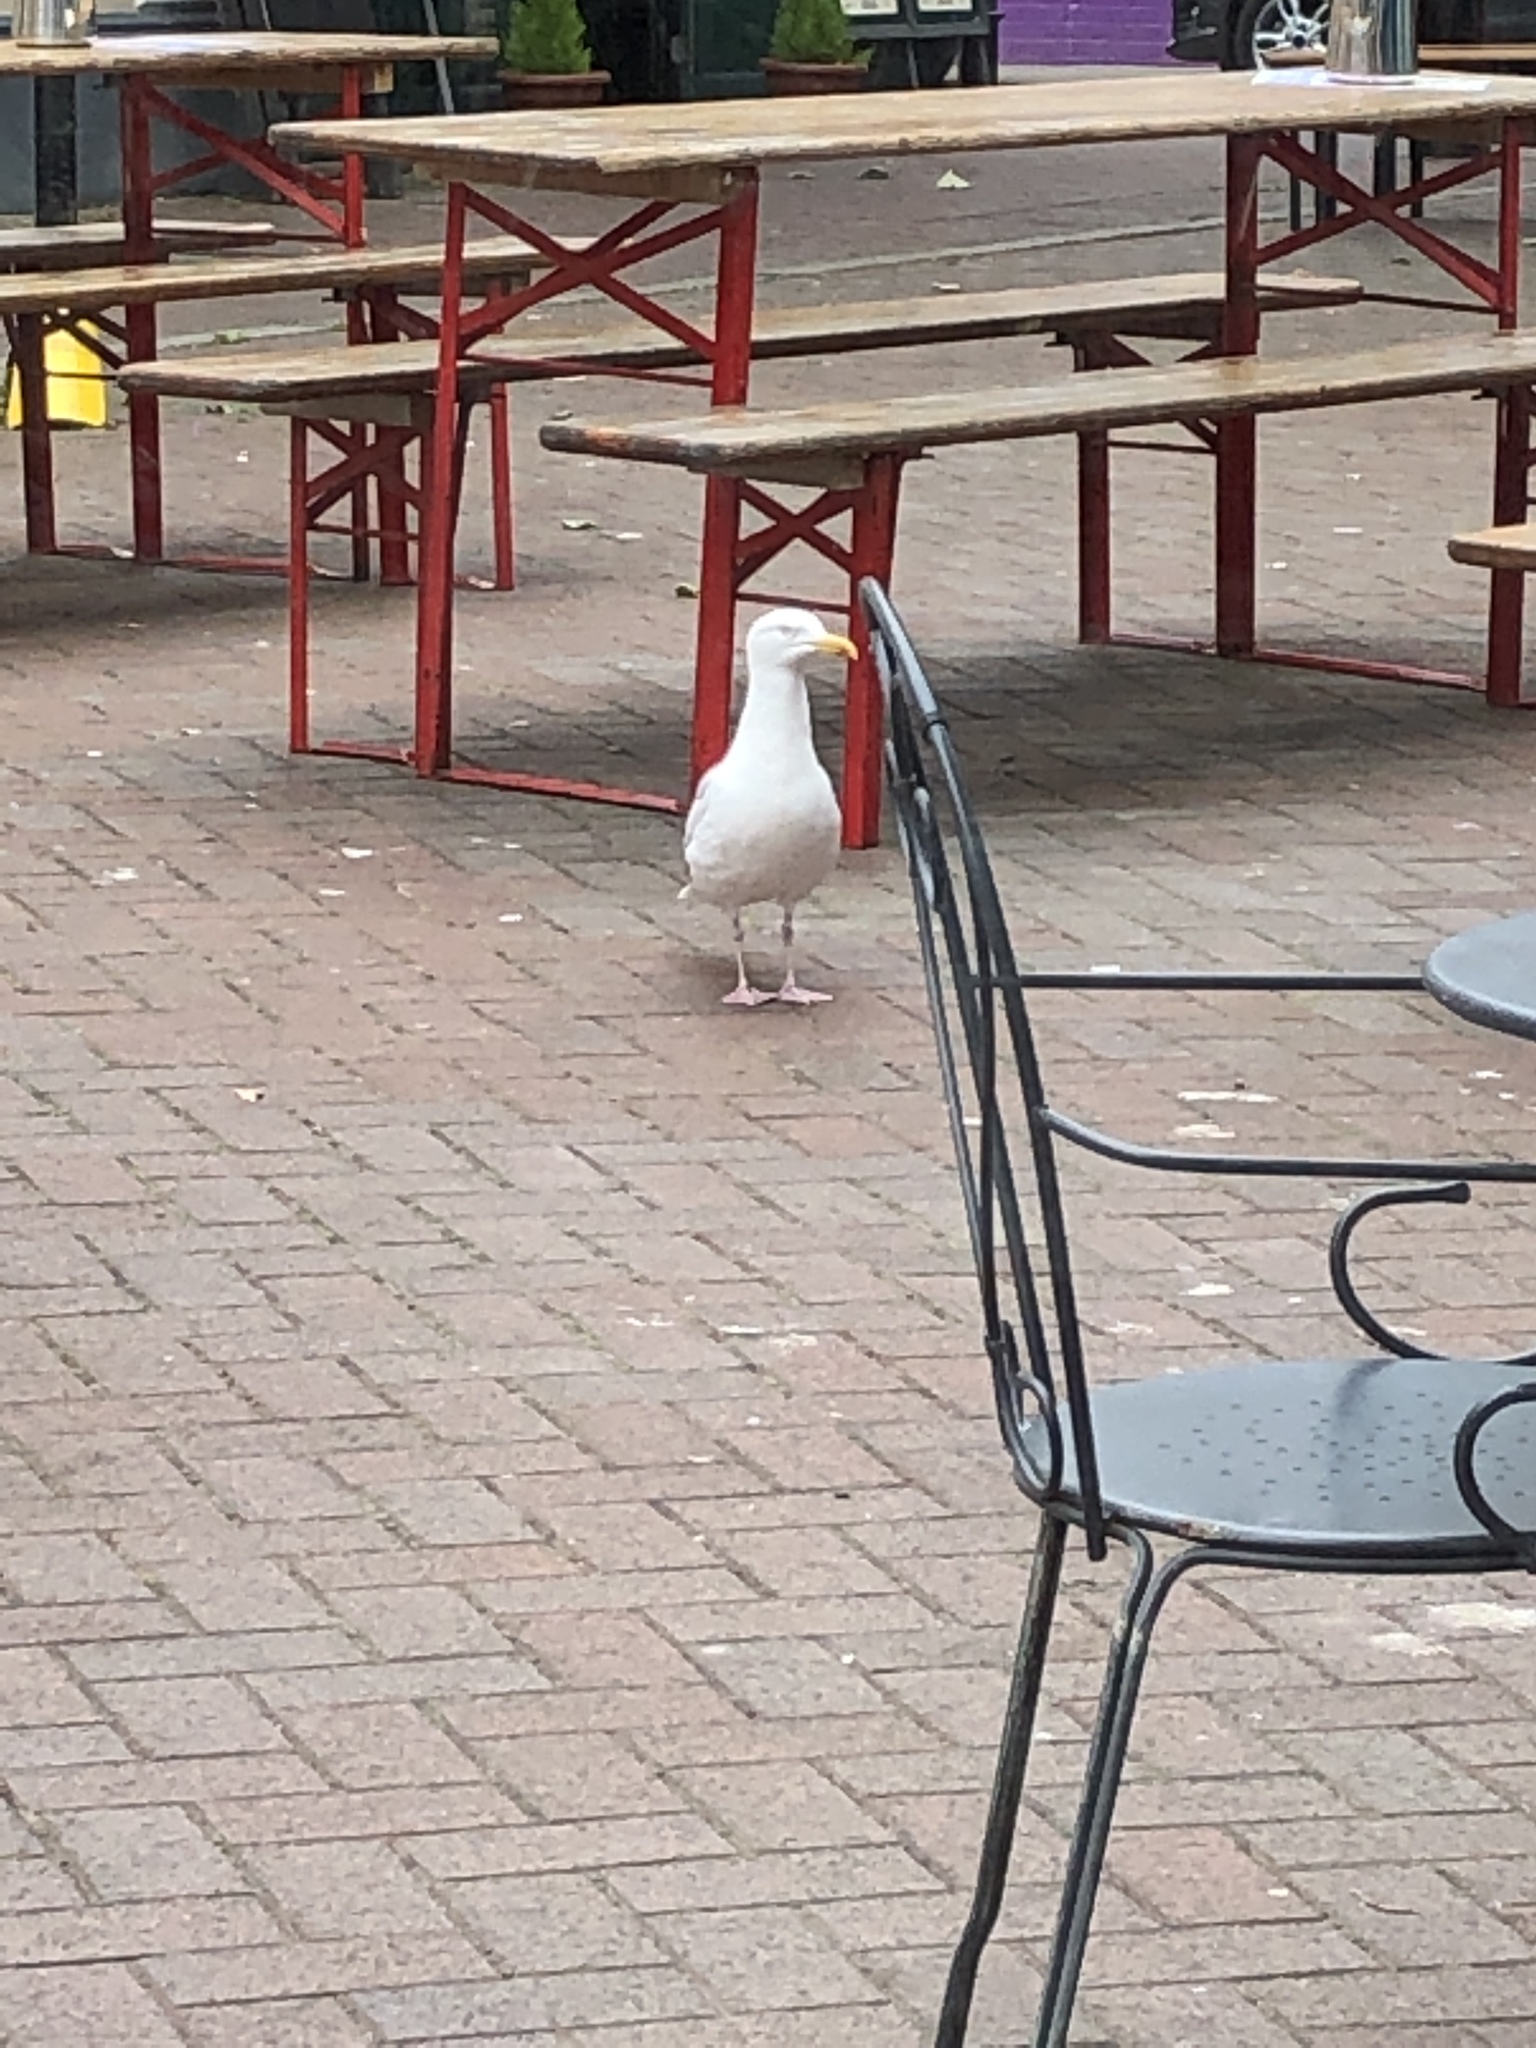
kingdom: Animalia
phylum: Chordata
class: Aves
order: Charadriiformes
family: Laridae
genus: Larus
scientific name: Larus argentatus
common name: Herring gull
